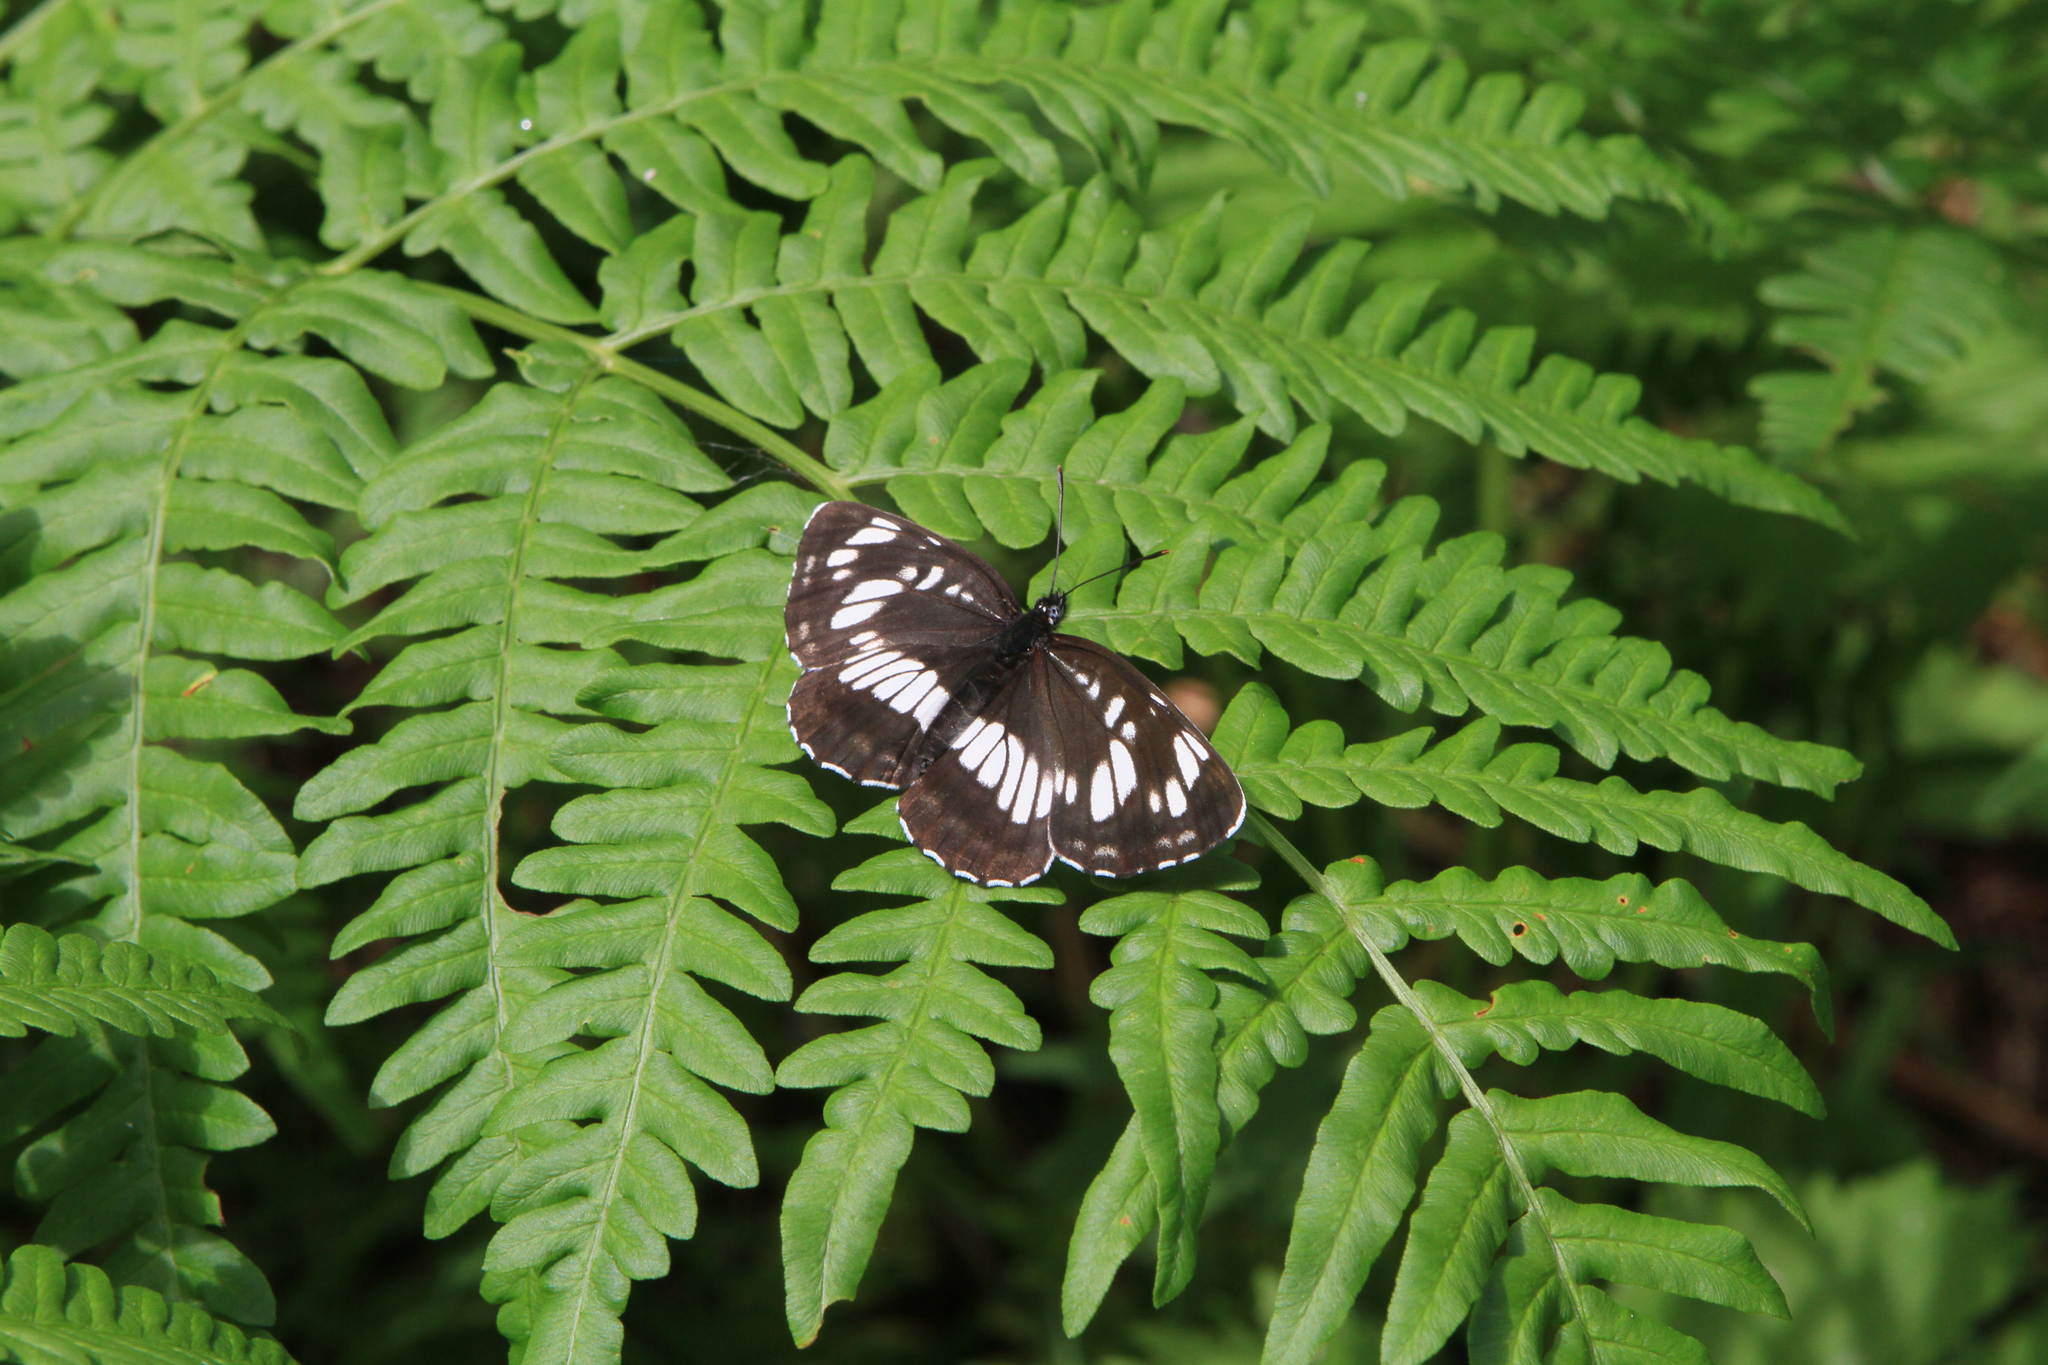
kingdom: Animalia
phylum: Arthropoda
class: Insecta
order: Lepidoptera
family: Nymphalidae
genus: Neptis
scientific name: Neptis rivularis
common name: Hungarian glider
